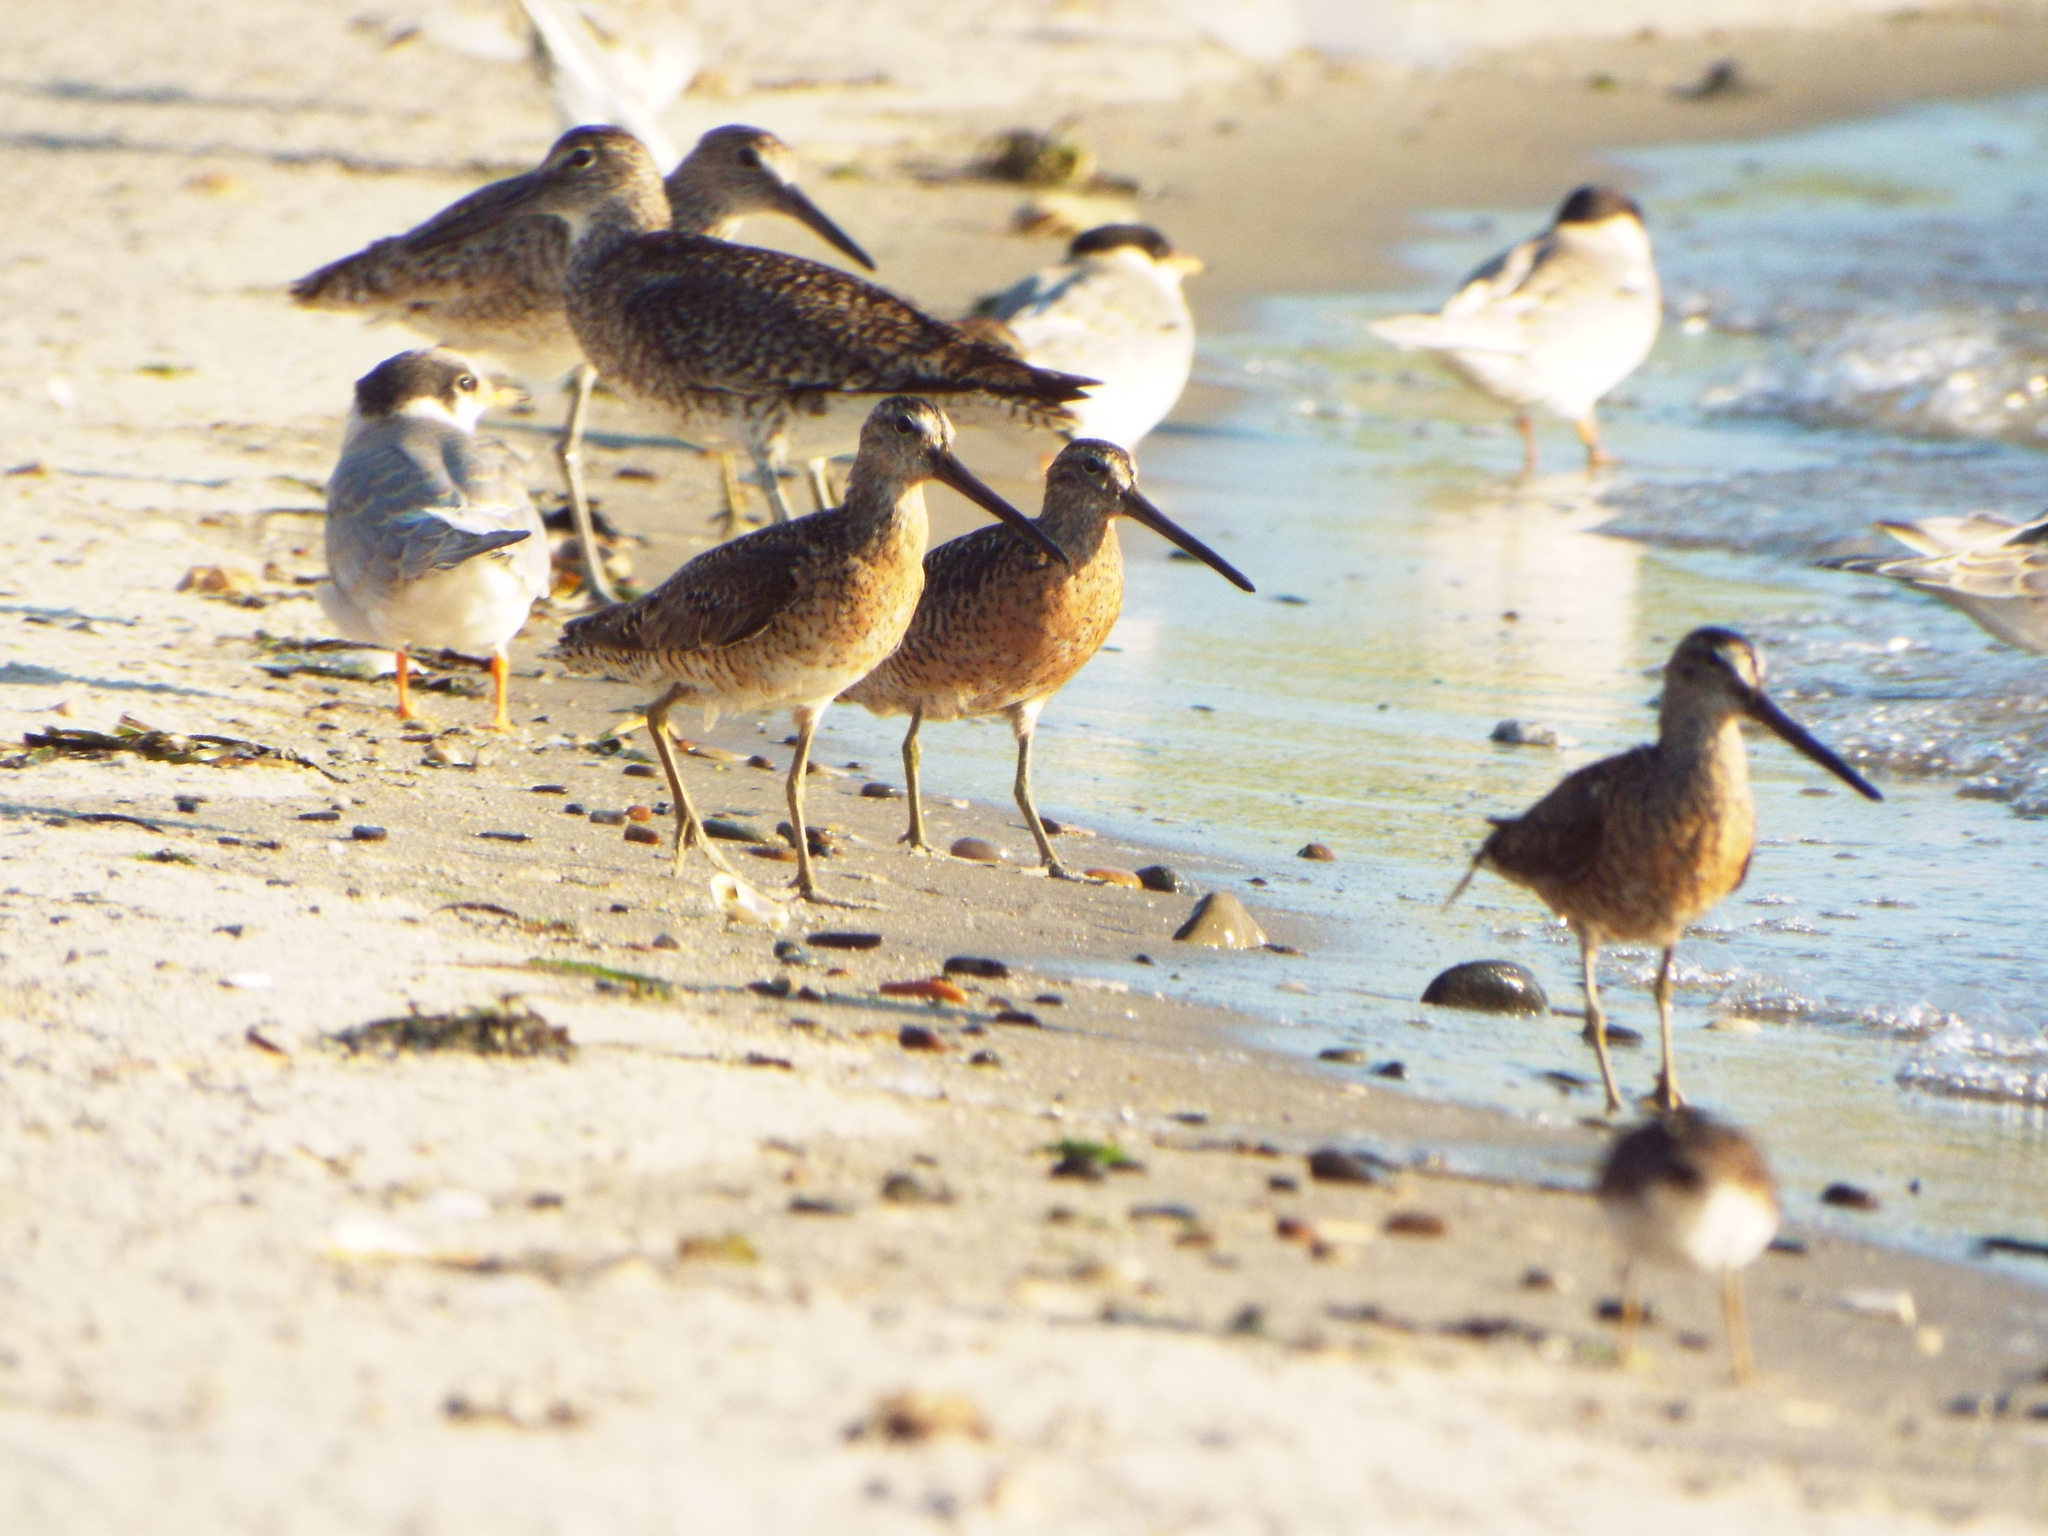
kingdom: Animalia
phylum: Chordata
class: Aves
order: Charadriiformes
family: Scolopacidae
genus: Limnodromus
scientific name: Limnodromus griseus
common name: Short-billed dowitcher
